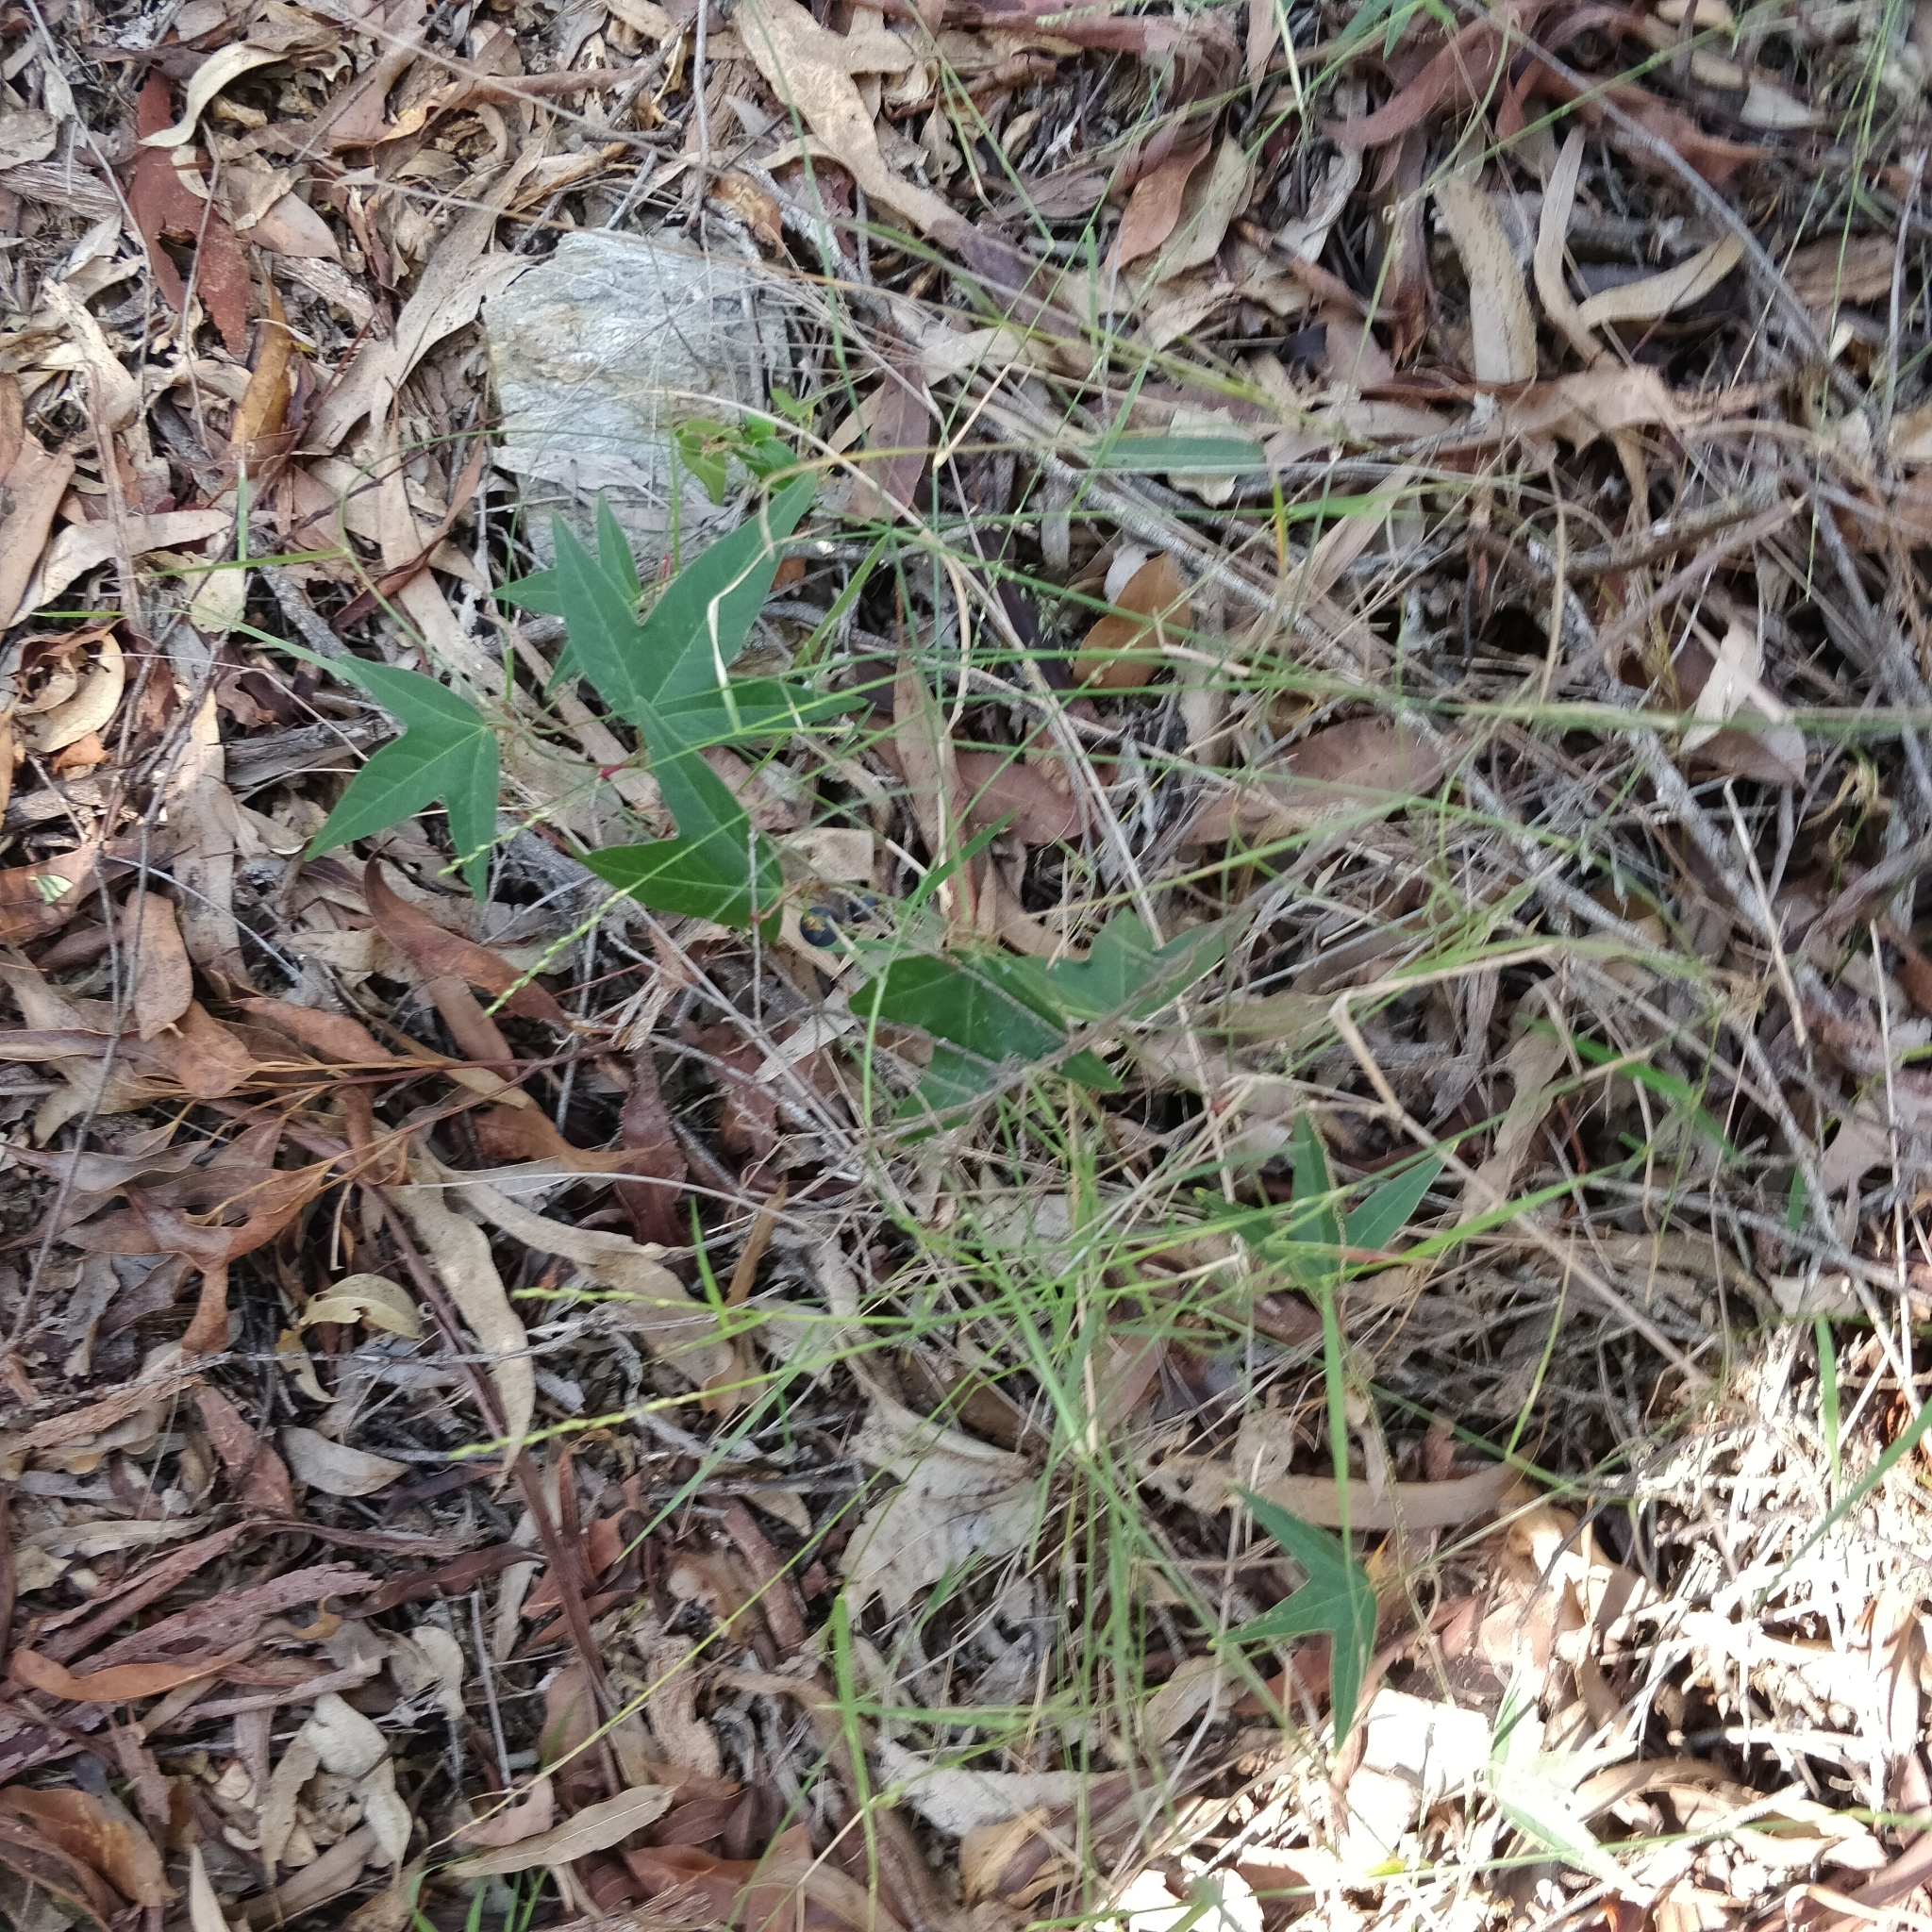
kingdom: Plantae
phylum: Tracheophyta
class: Magnoliopsida
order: Malpighiales
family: Passifloraceae
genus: Passiflora
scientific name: Passiflora suberosa
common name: Wild passionfruit
